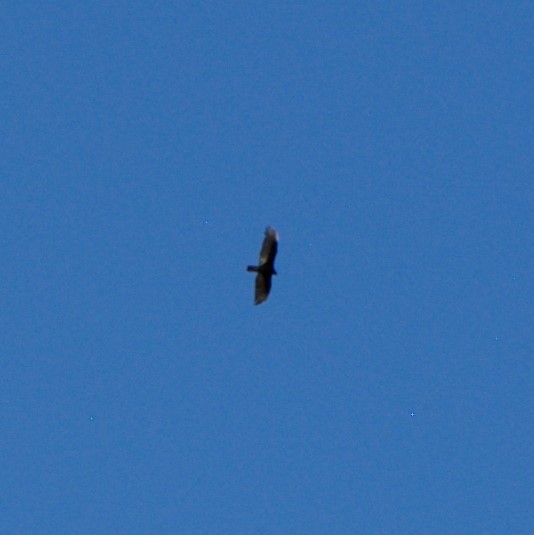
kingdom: Animalia
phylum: Chordata
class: Aves
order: Accipitriformes
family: Cathartidae
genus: Cathartes
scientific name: Cathartes aura
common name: Turkey vulture
